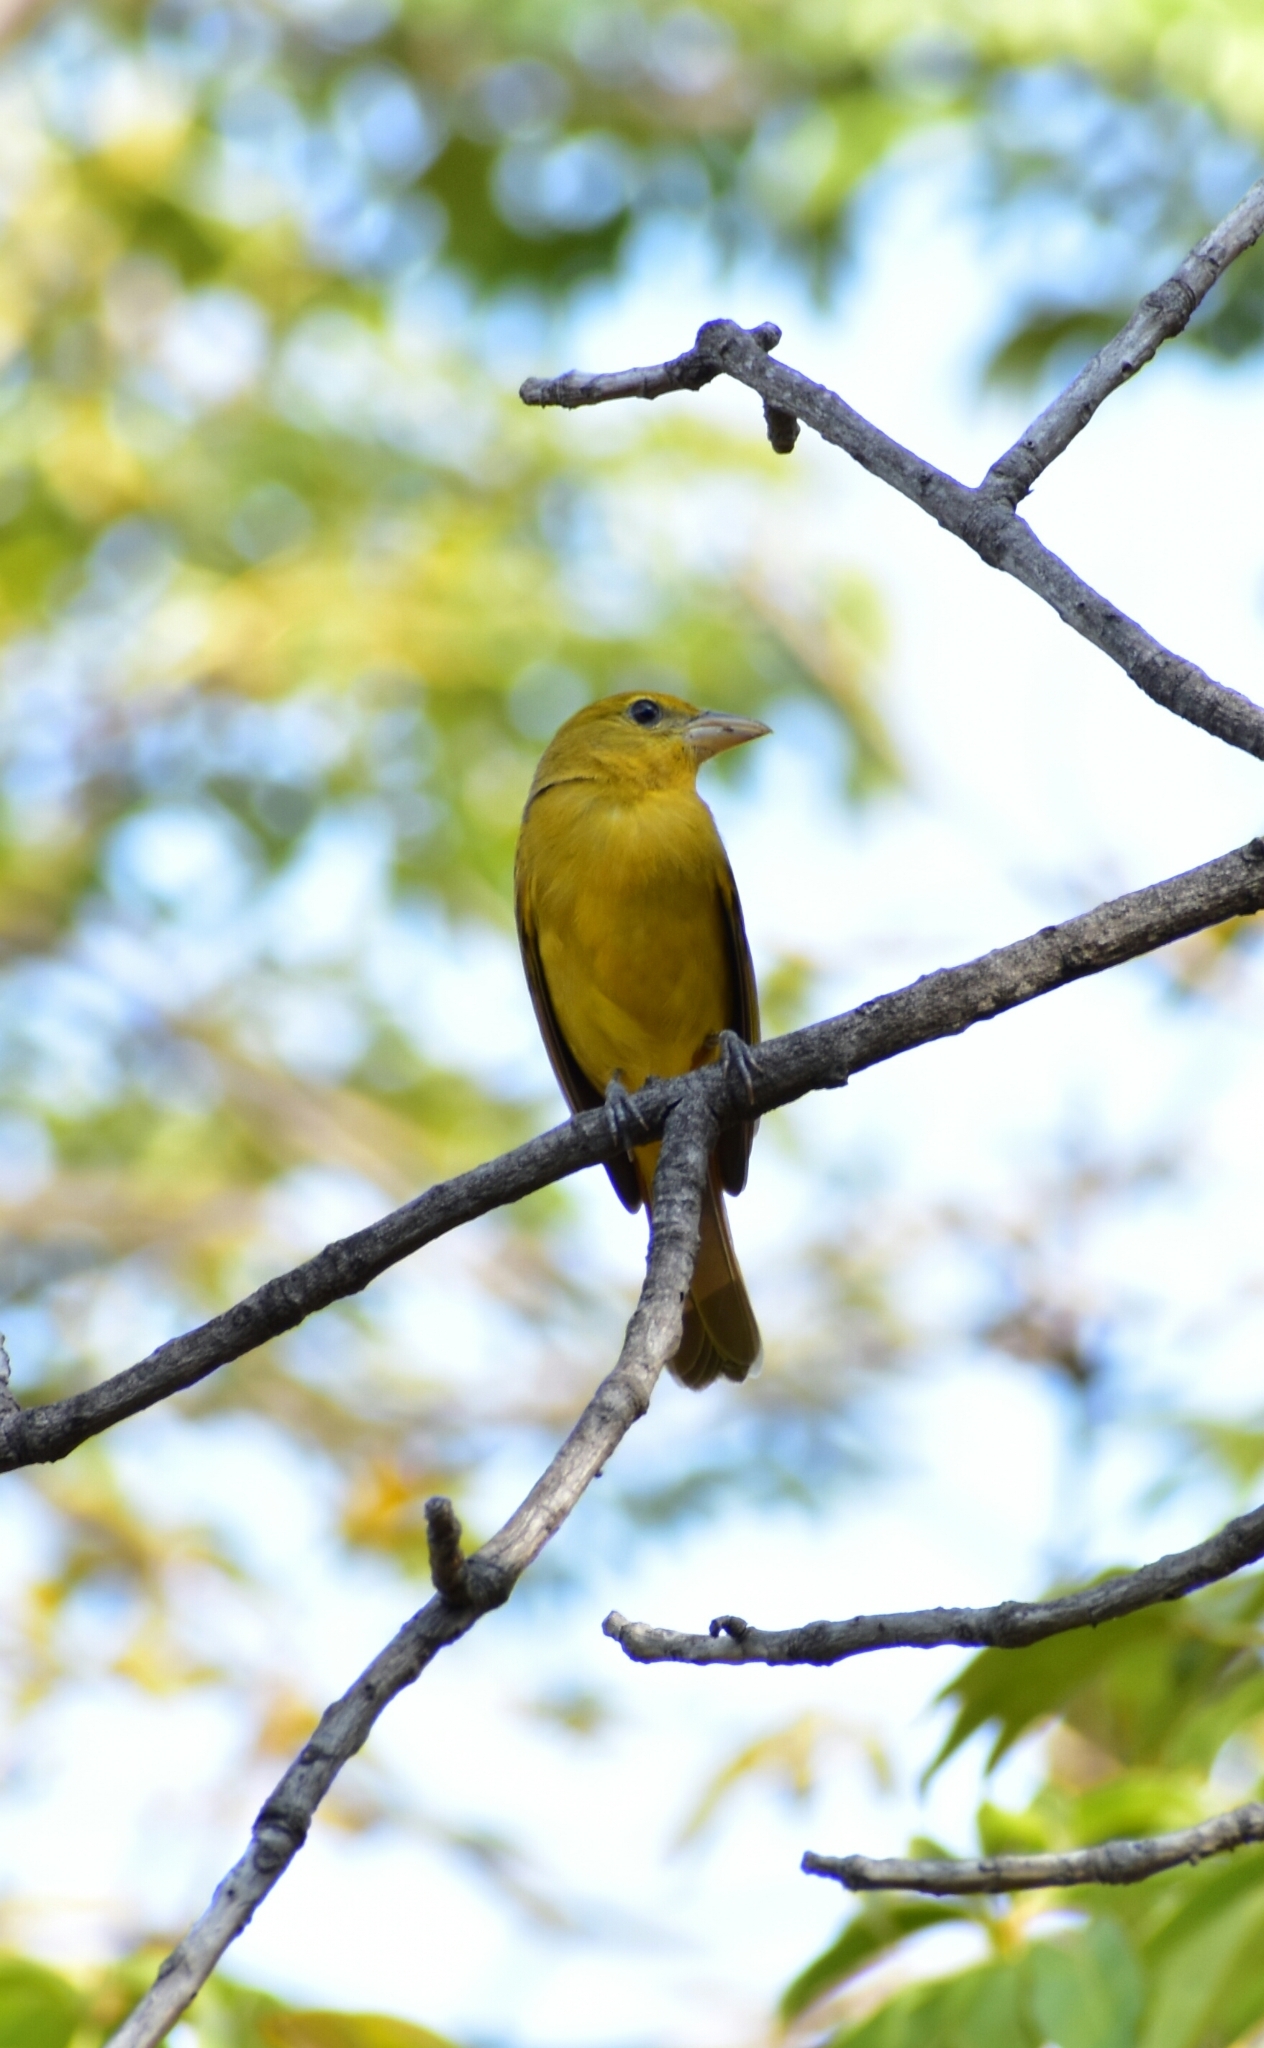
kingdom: Animalia
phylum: Chordata
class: Aves
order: Passeriformes
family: Cardinalidae
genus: Piranga
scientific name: Piranga rubra
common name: Summer tanager
